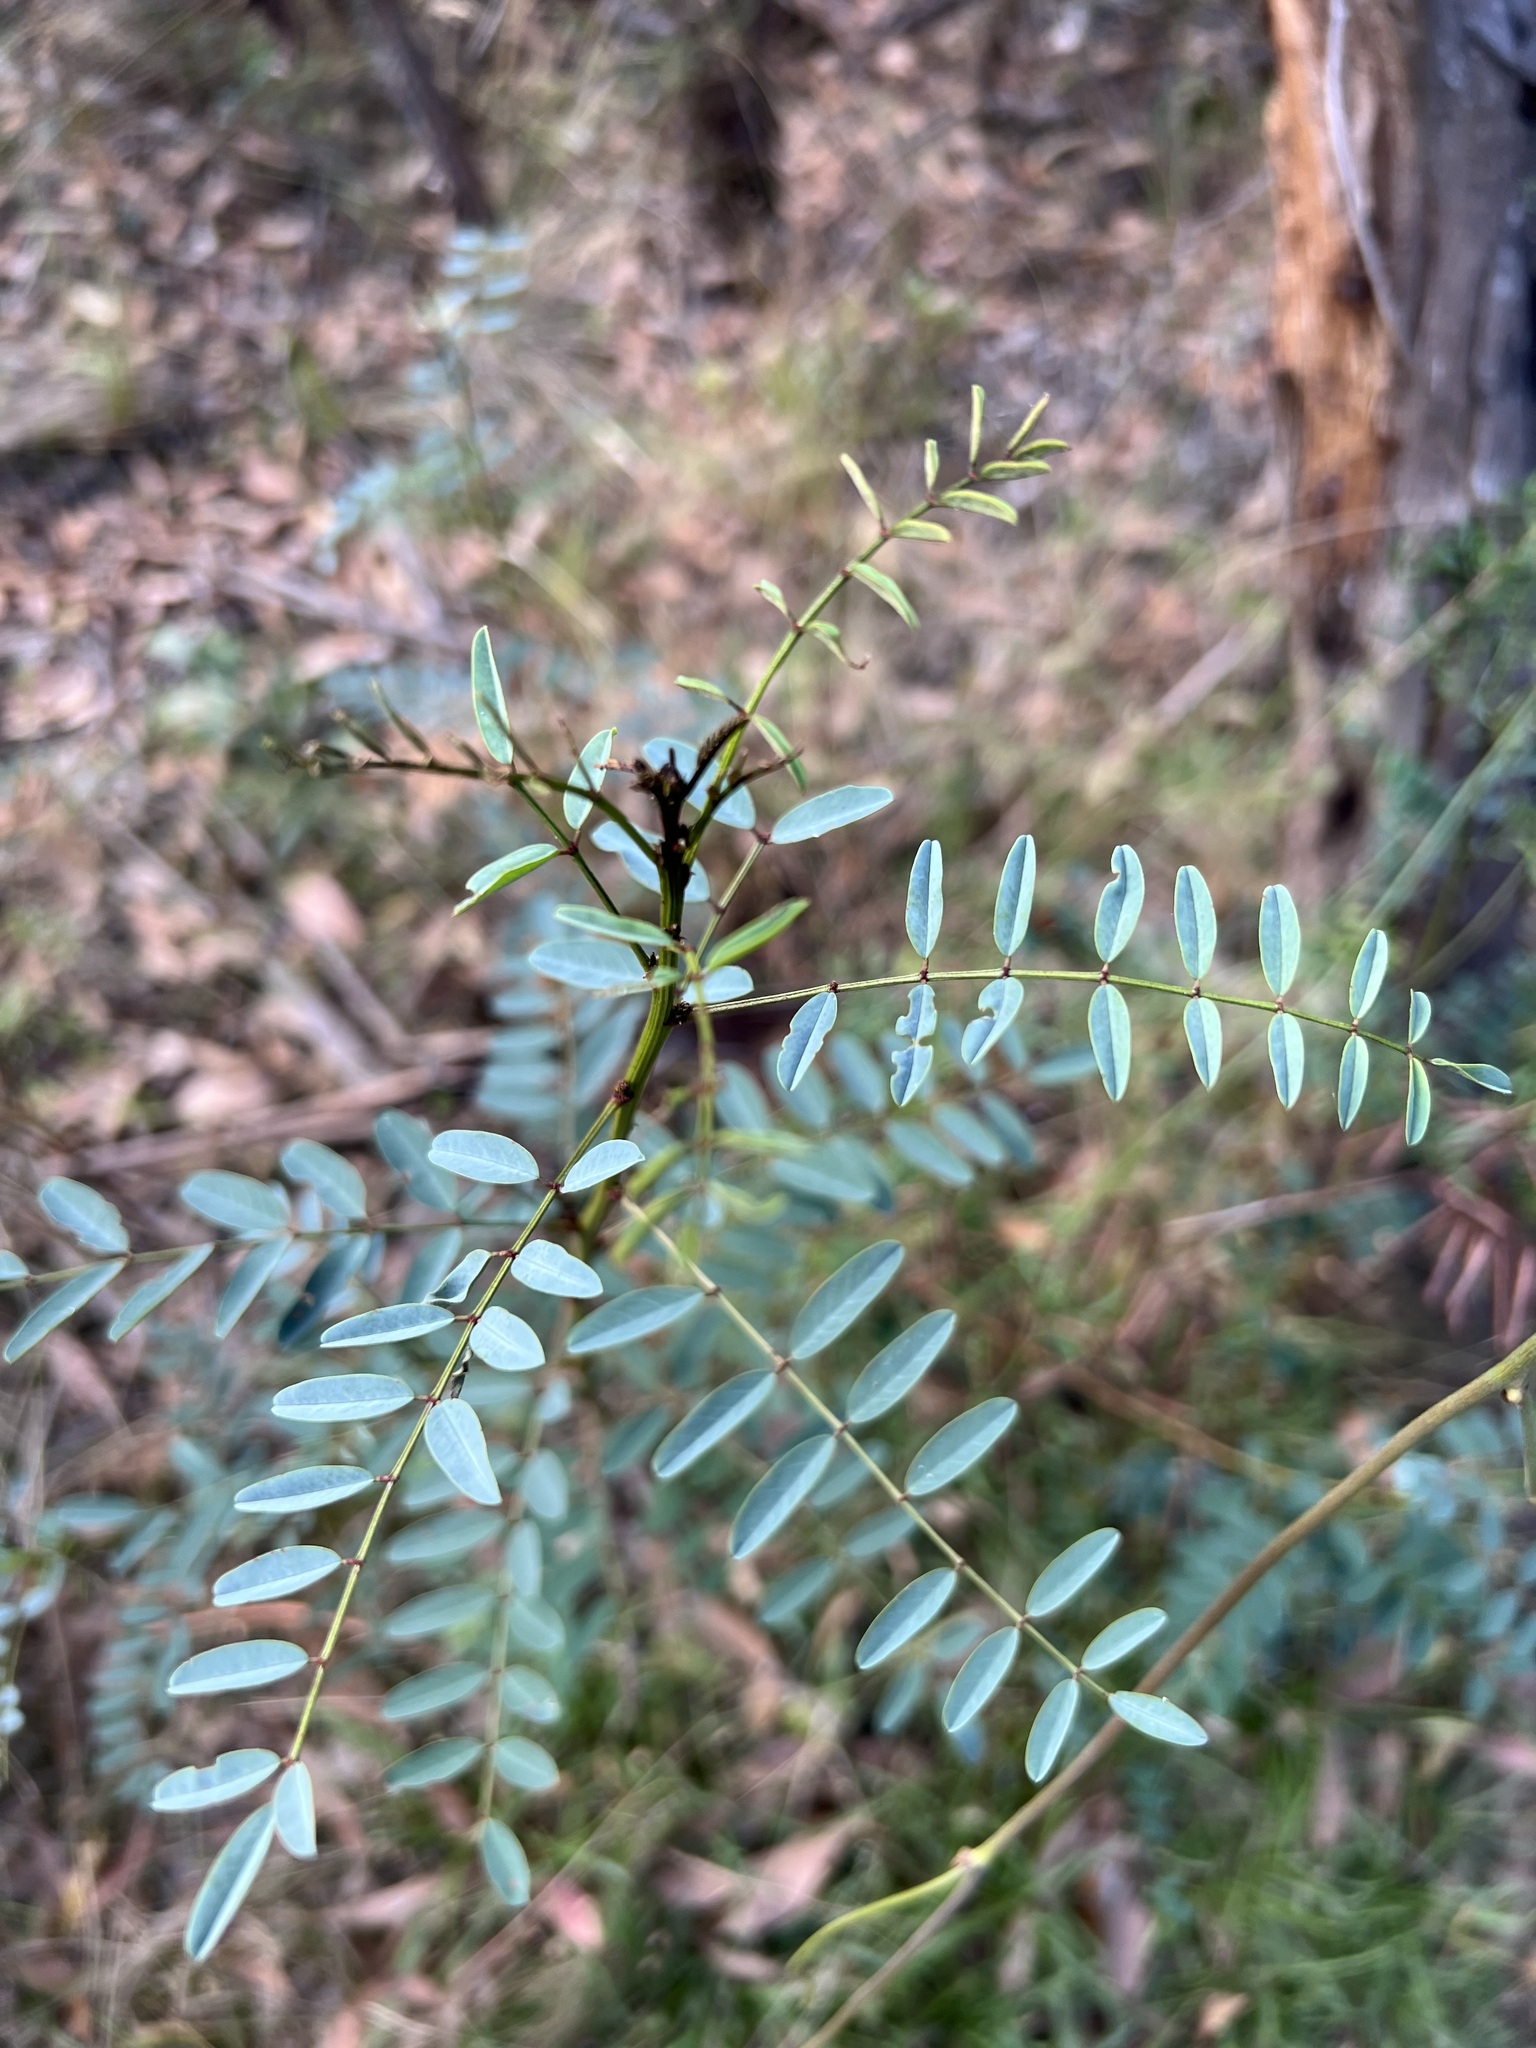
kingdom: Plantae
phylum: Tracheophyta
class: Magnoliopsida
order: Fabales
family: Fabaceae
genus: Indigofera
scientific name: Indigofera australis
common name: Australian indigo
